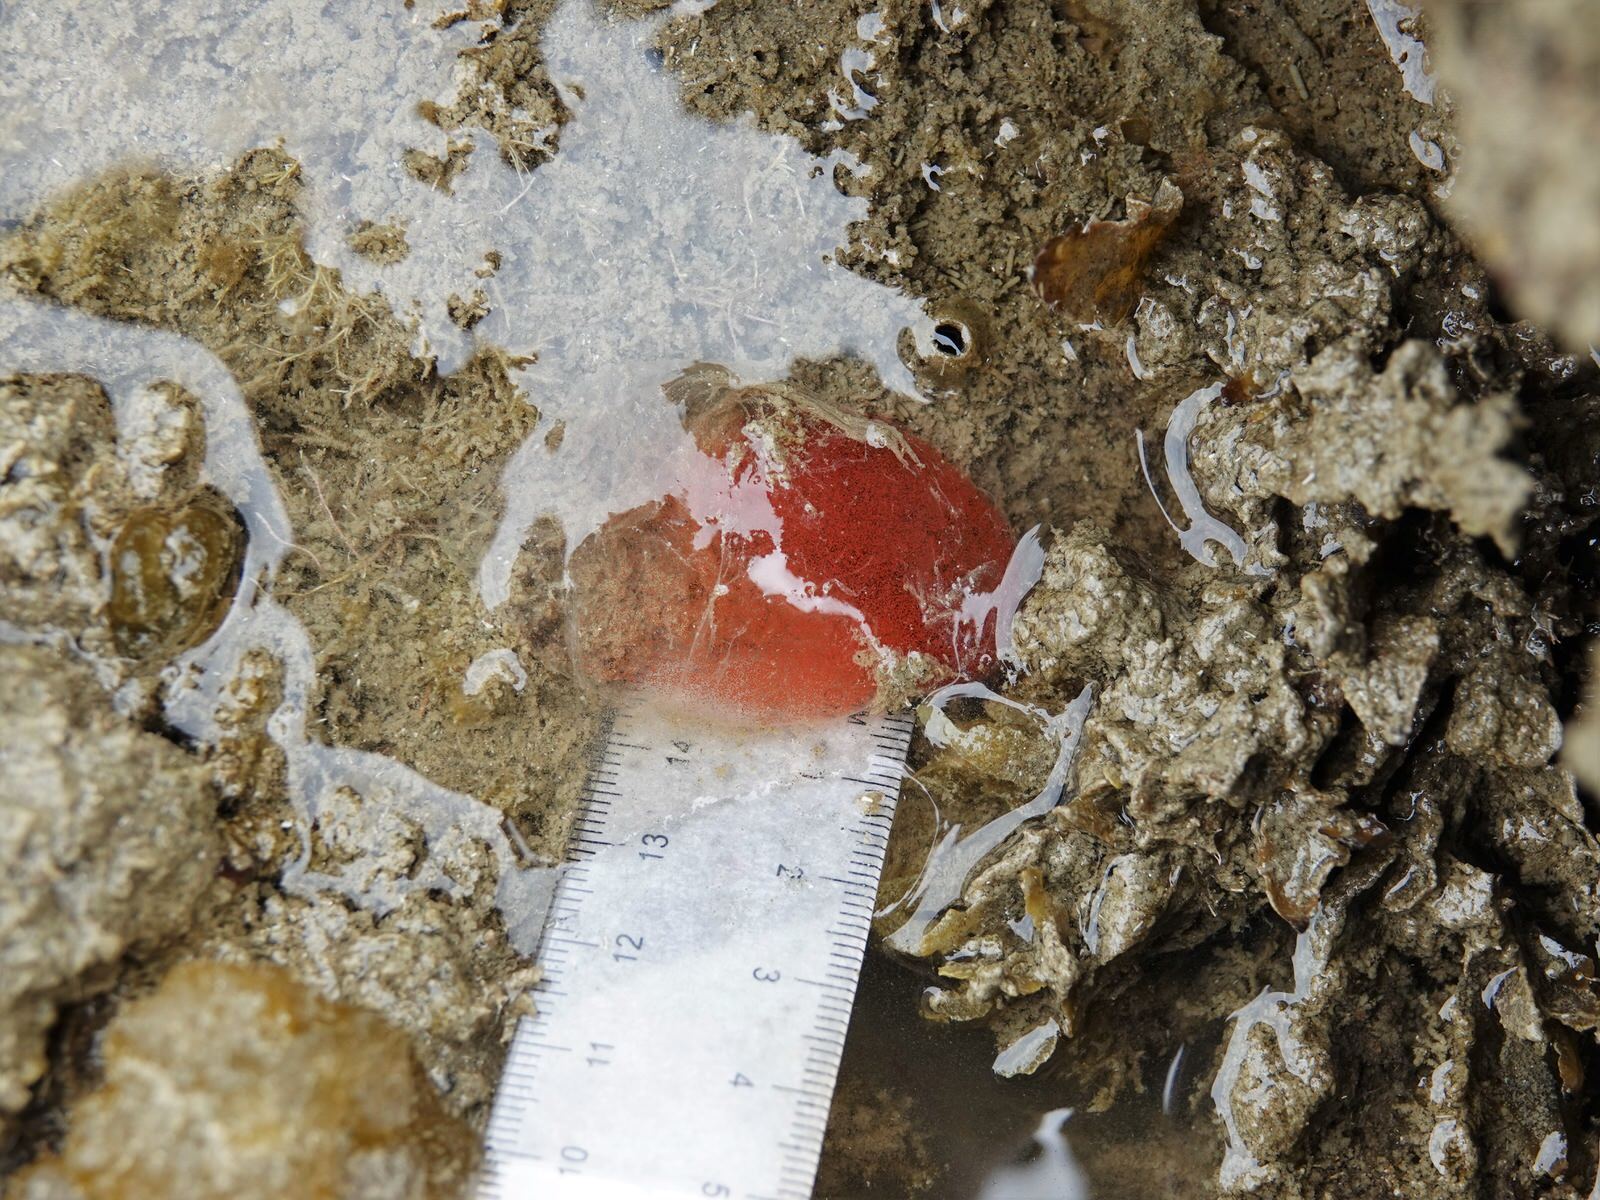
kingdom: Animalia
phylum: Mollusca
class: Gastropoda
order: Cephalaspidea
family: Bullidae
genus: Bulla
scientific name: Bulla quoyii
